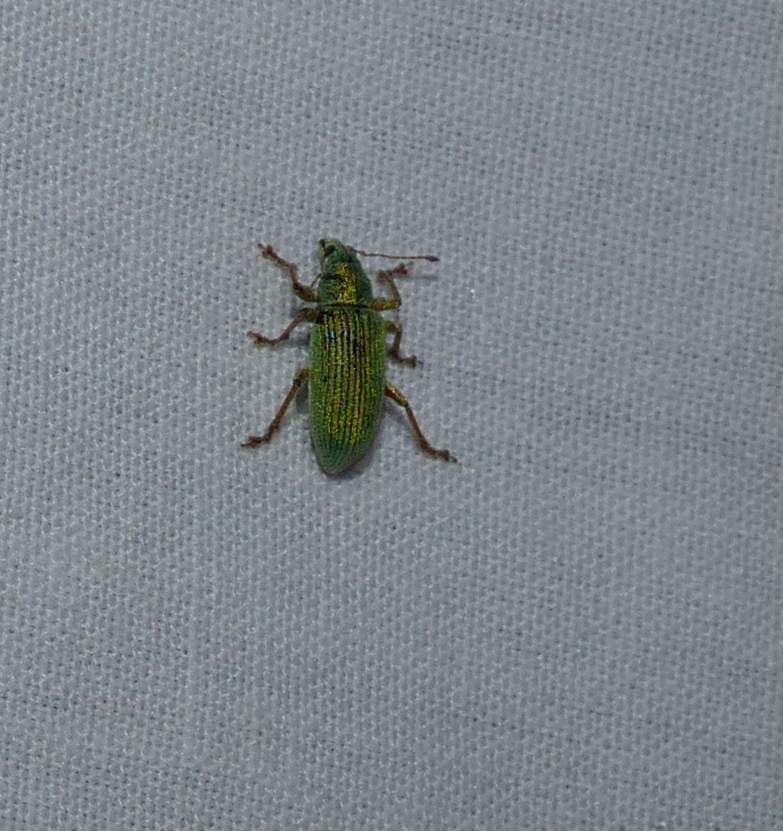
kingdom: Animalia
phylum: Arthropoda
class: Insecta
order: Coleoptera
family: Curculionidae
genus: Polydrusus
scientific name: Polydrusus formosus
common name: Weevil
